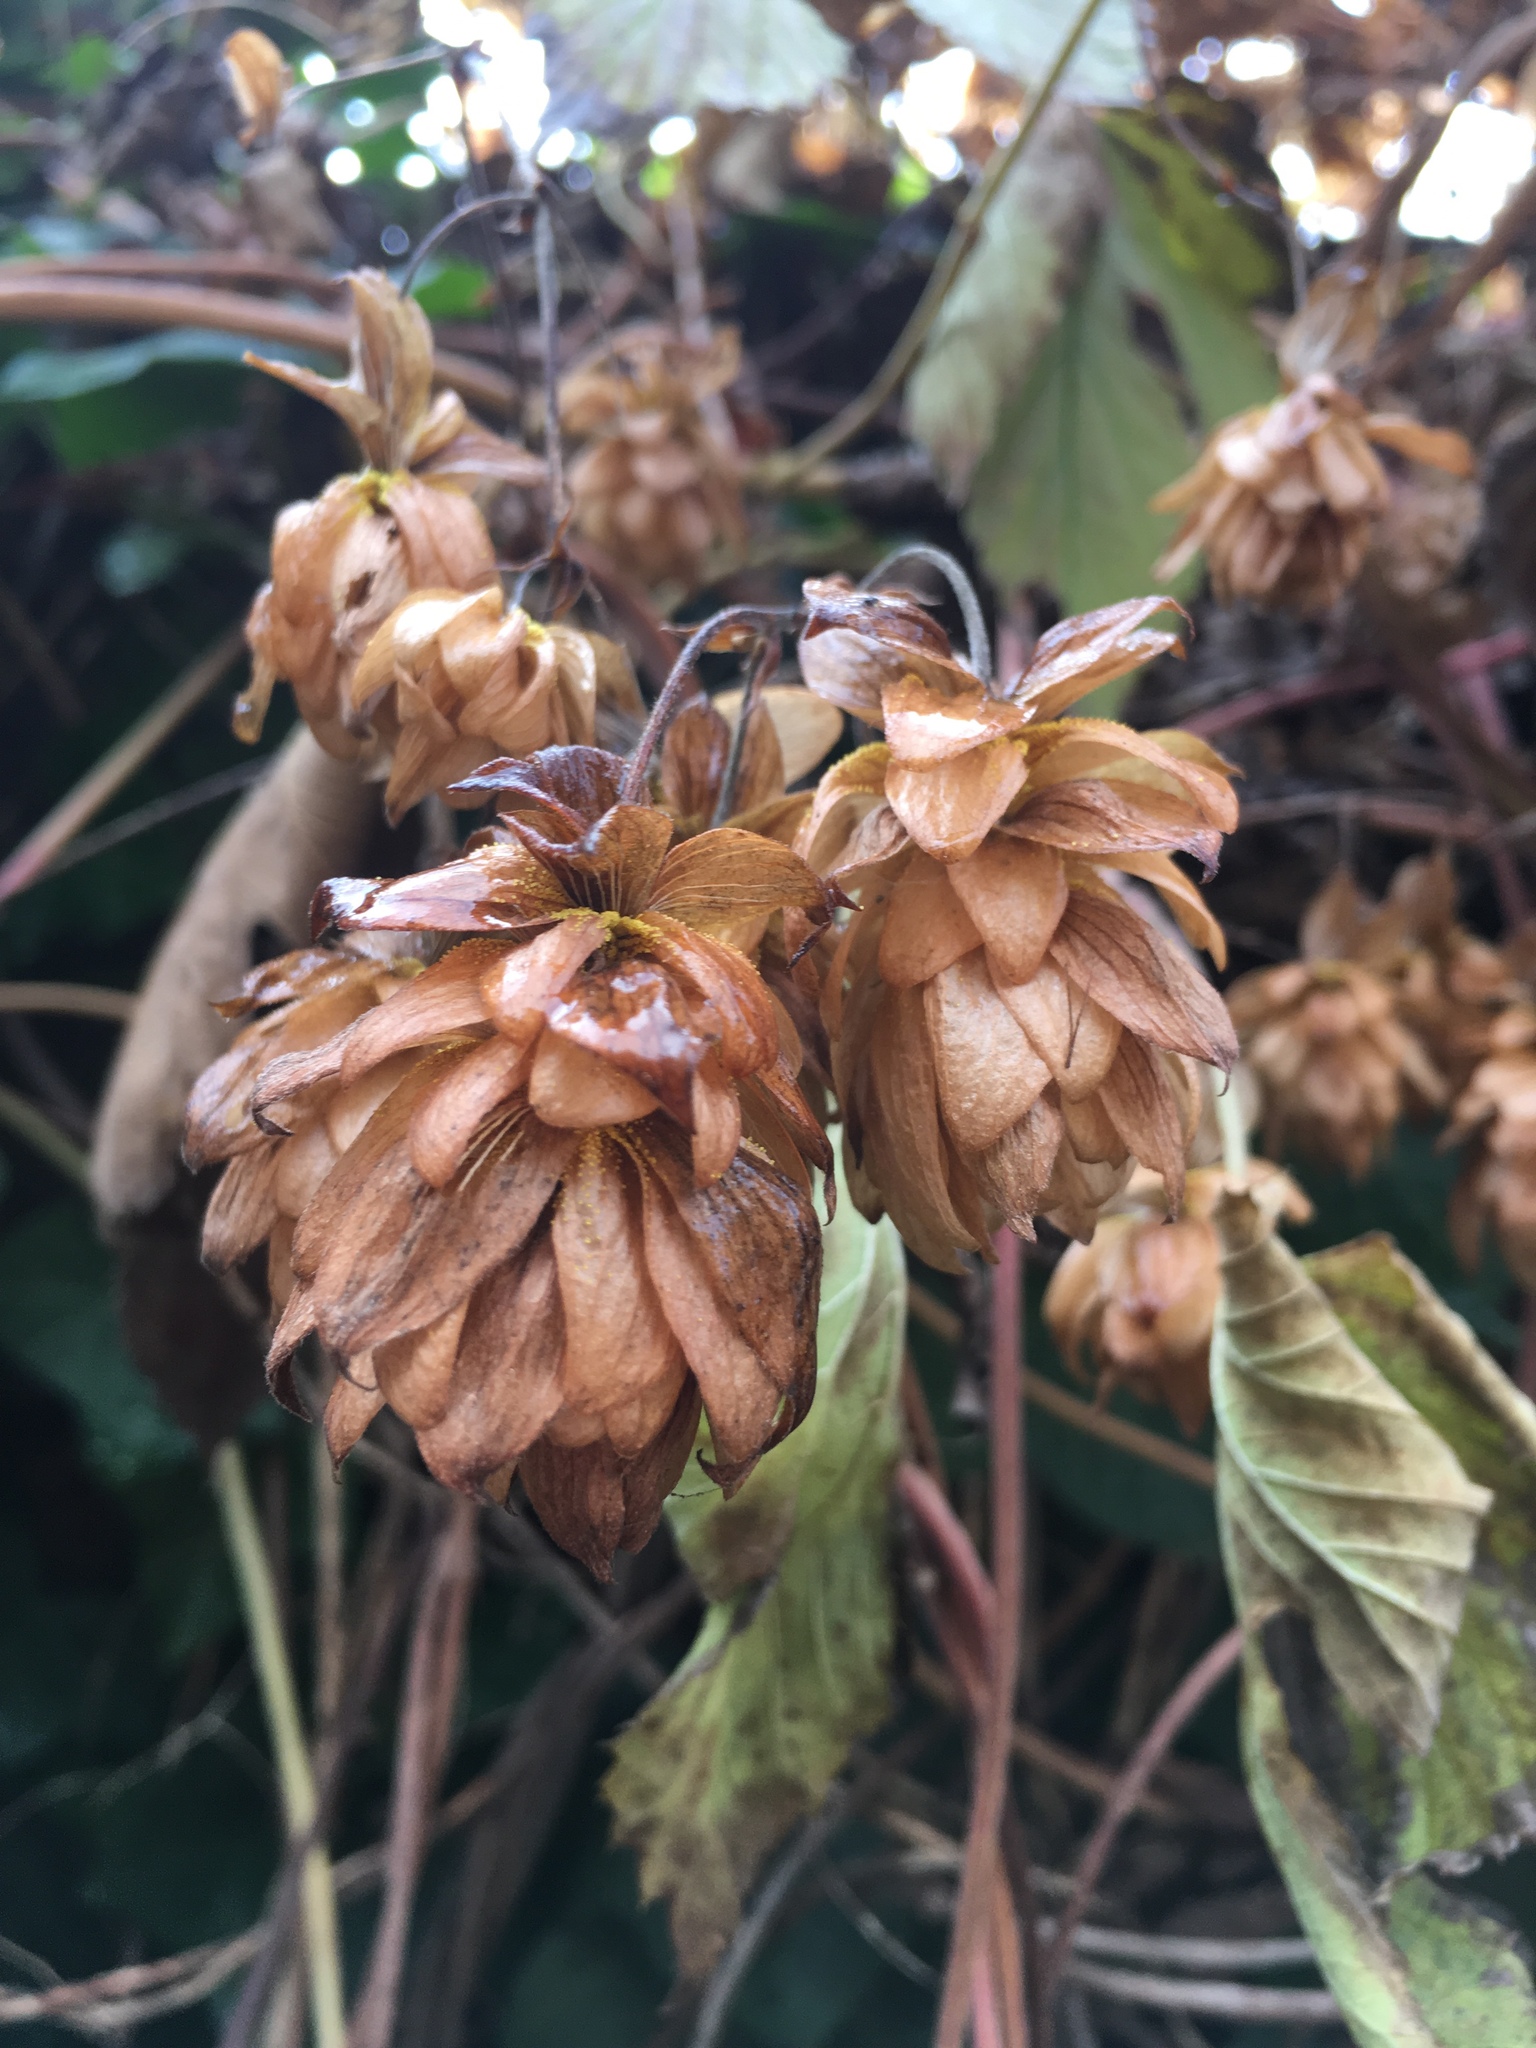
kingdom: Plantae
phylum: Tracheophyta
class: Magnoliopsida
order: Rosales
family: Cannabaceae
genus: Humulus
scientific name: Humulus lupulus
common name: Hop
